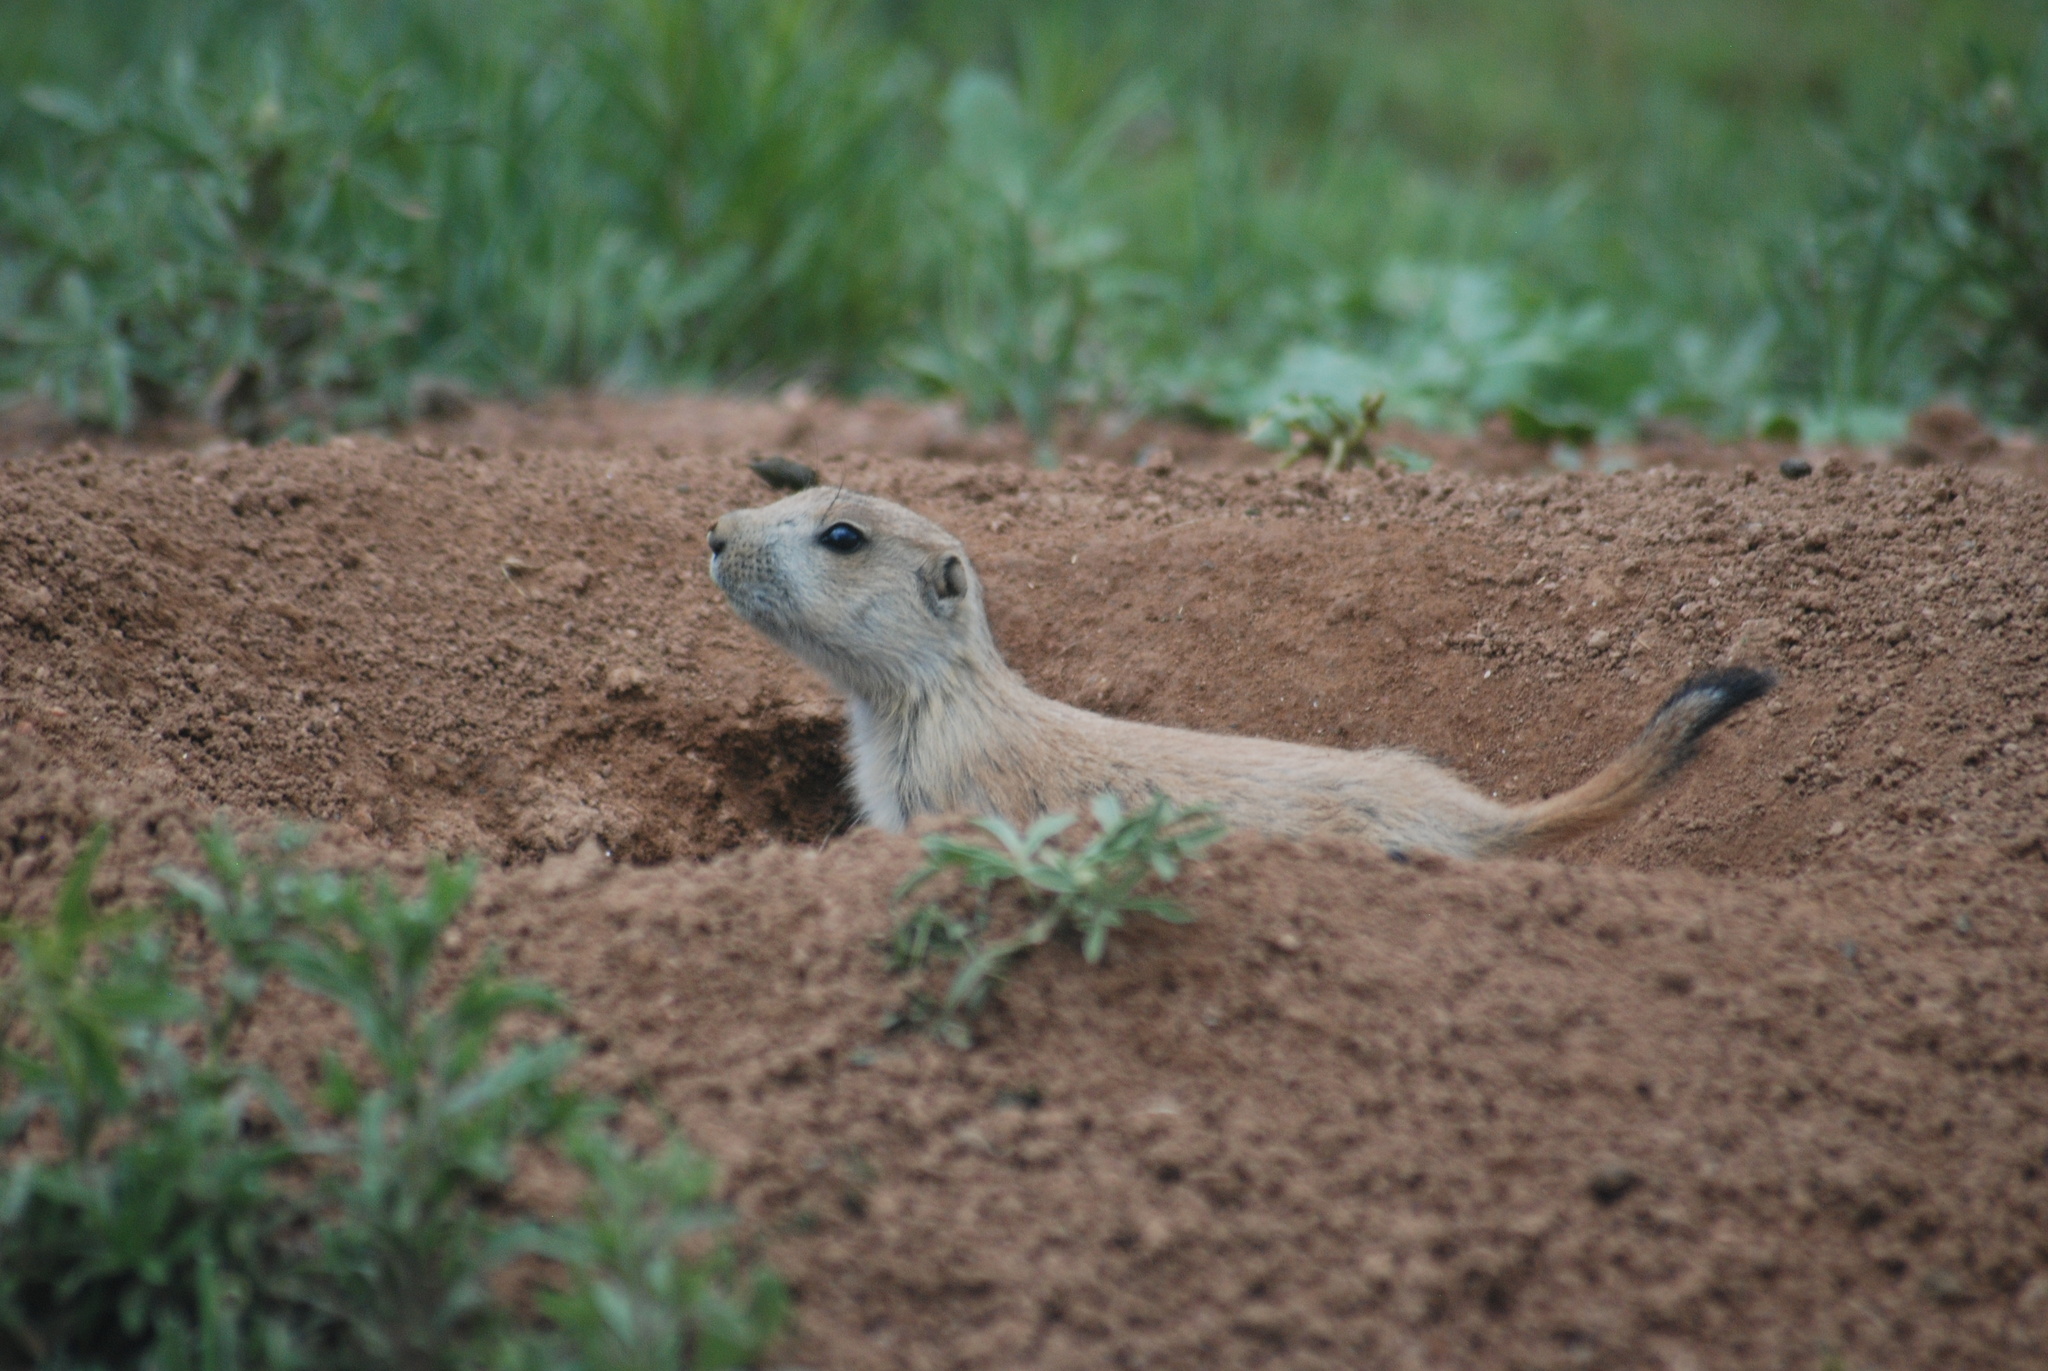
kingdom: Animalia
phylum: Chordata
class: Mammalia
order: Rodentia
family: Sciuridae
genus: Cynomys
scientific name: Cynomys ludovicianus
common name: Black-tailed prairie dog
